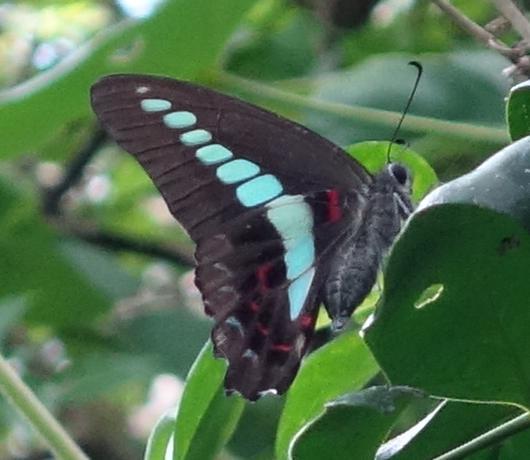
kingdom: Fungi
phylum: Ascomycota
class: Sordariomycetes
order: Microascales
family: Microascaceae
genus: Graphium
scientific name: Graphium sarpedon
